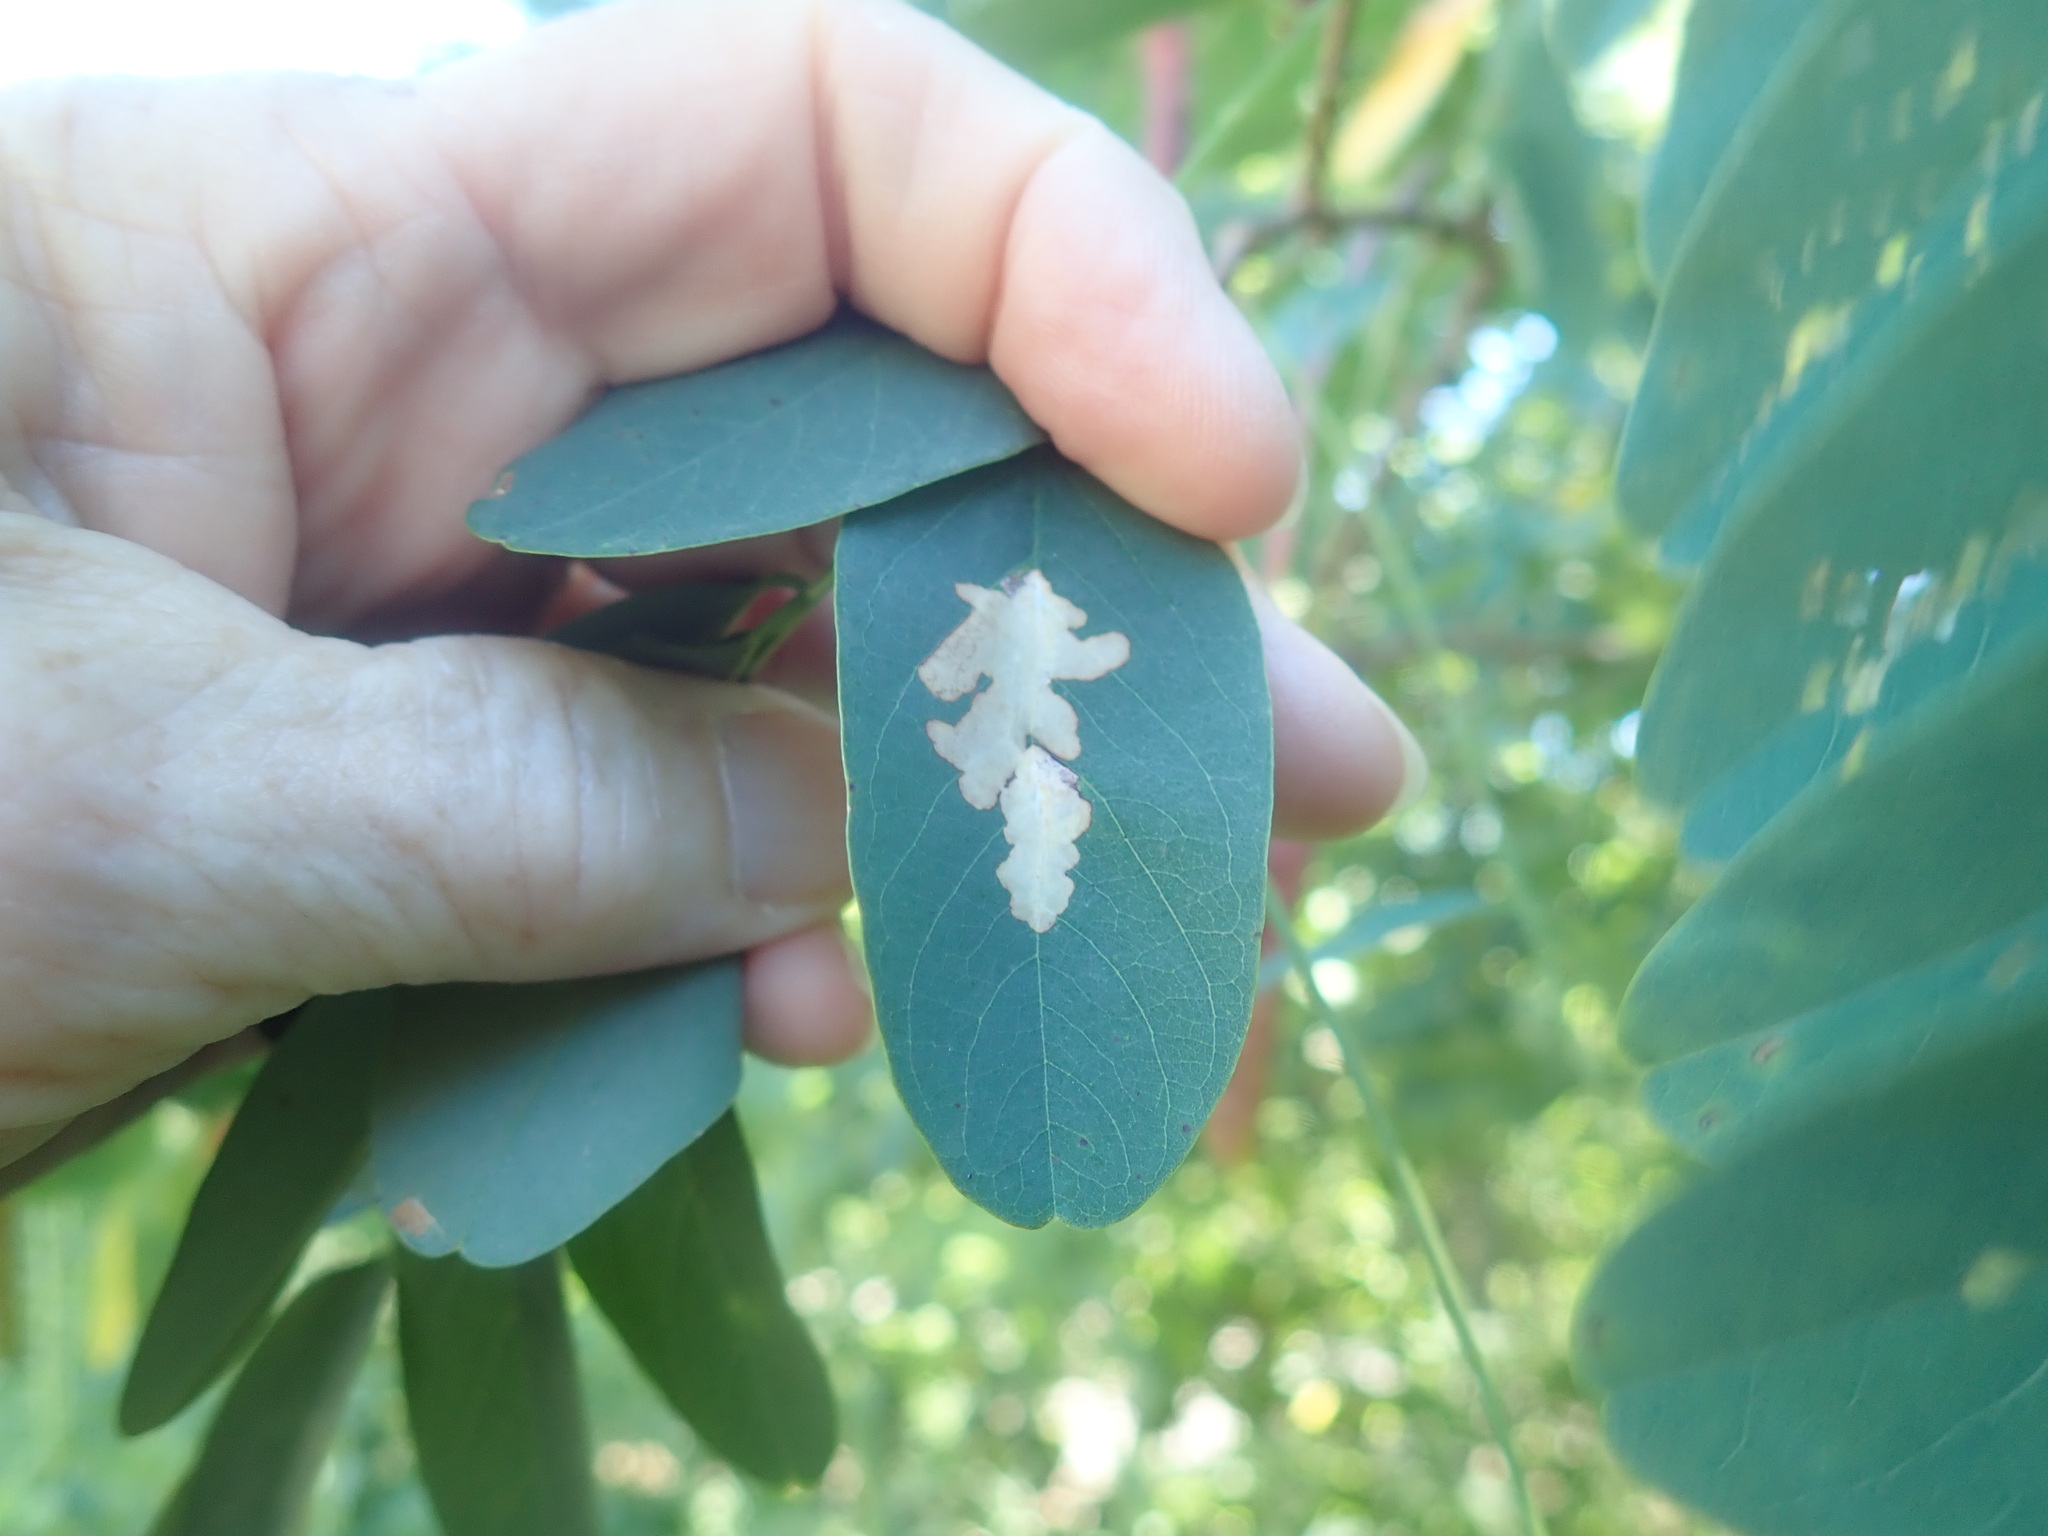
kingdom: Animalia
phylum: Arthropoda
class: Insecta
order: Lepidoptera
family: Gracillariidae
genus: Parectopa
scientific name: Parectopa robiniella
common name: Locust digitate leafminer
